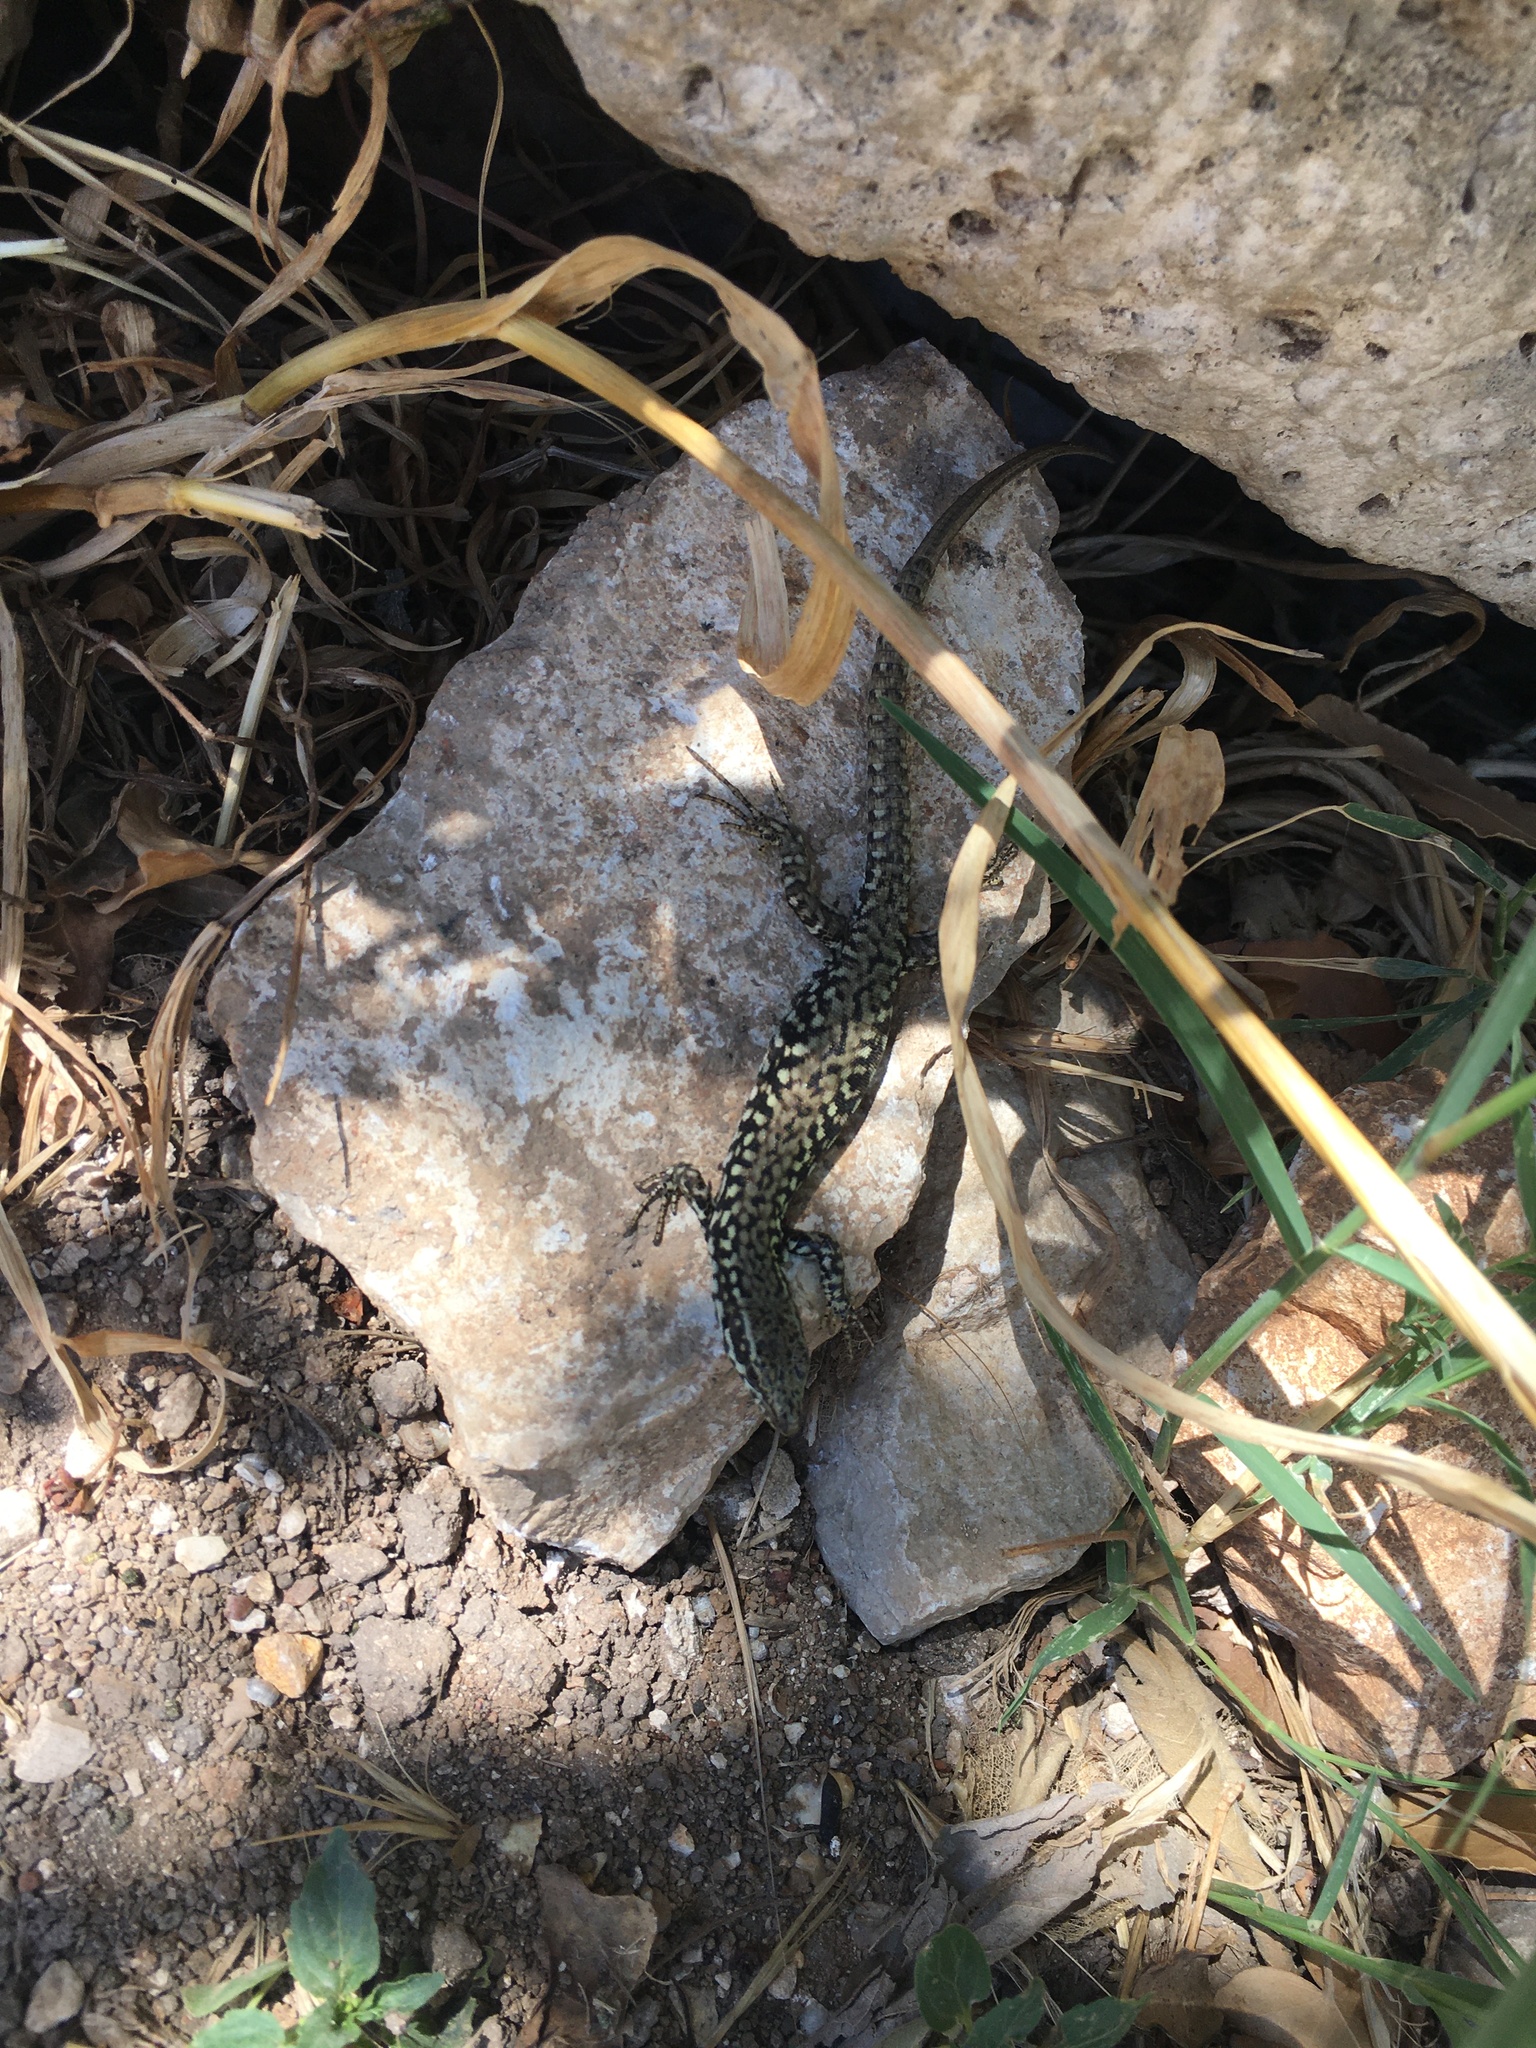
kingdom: Animalia
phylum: Chordata
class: Squamata
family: Lacertidae
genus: Podarcis
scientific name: Podarcis muralis
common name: Common wall lizard
